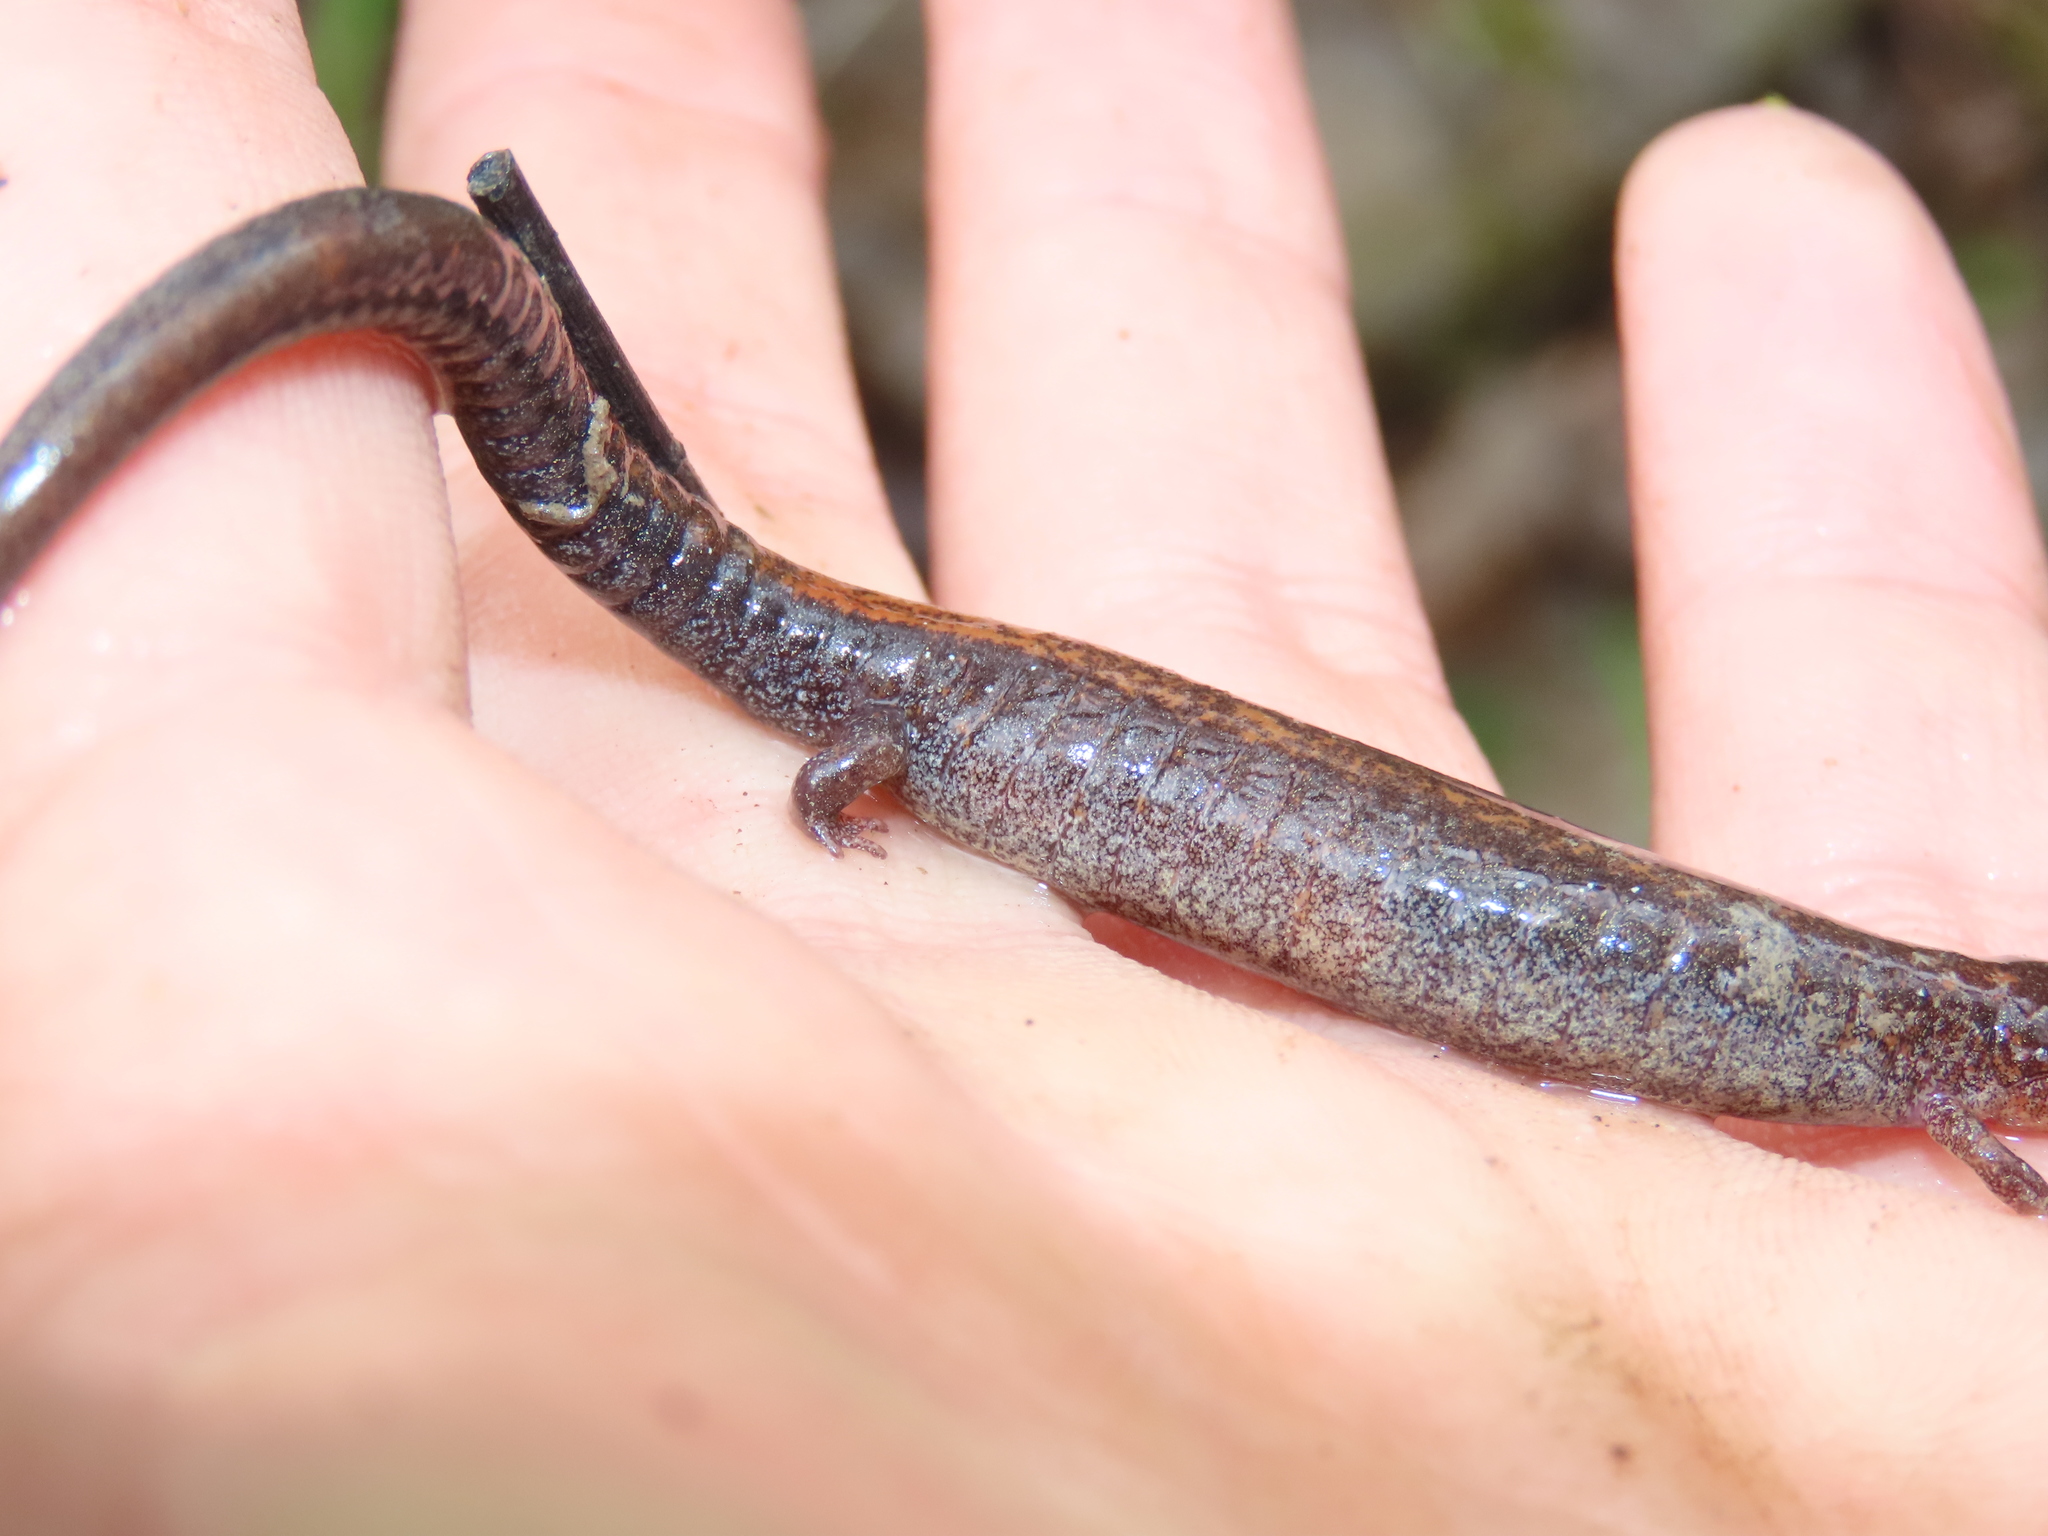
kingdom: Animalia
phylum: Chordata
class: Amphibia
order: Caudata
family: Plethodontidae
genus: Plethodon
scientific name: Plethodon cinereus
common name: Redback salamander
